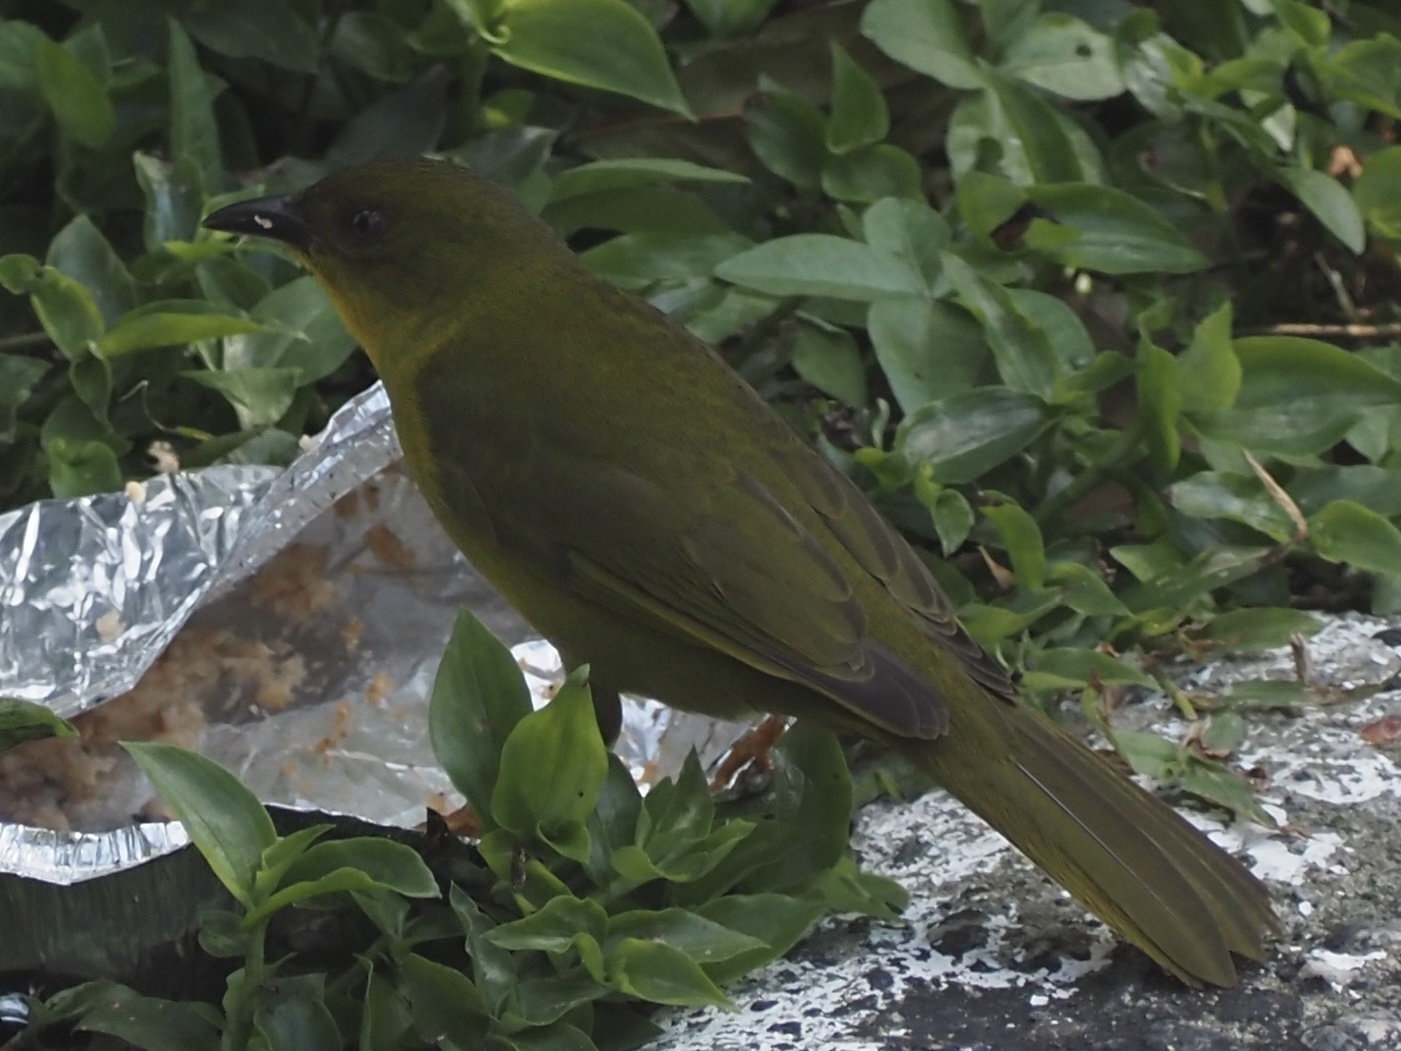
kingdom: Animalia
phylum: Chordata
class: Aves
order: Passeriformes
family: Mitrospingidae
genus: Orthogonys
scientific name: Orthogonys chloricterus
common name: Olive-green tanager
